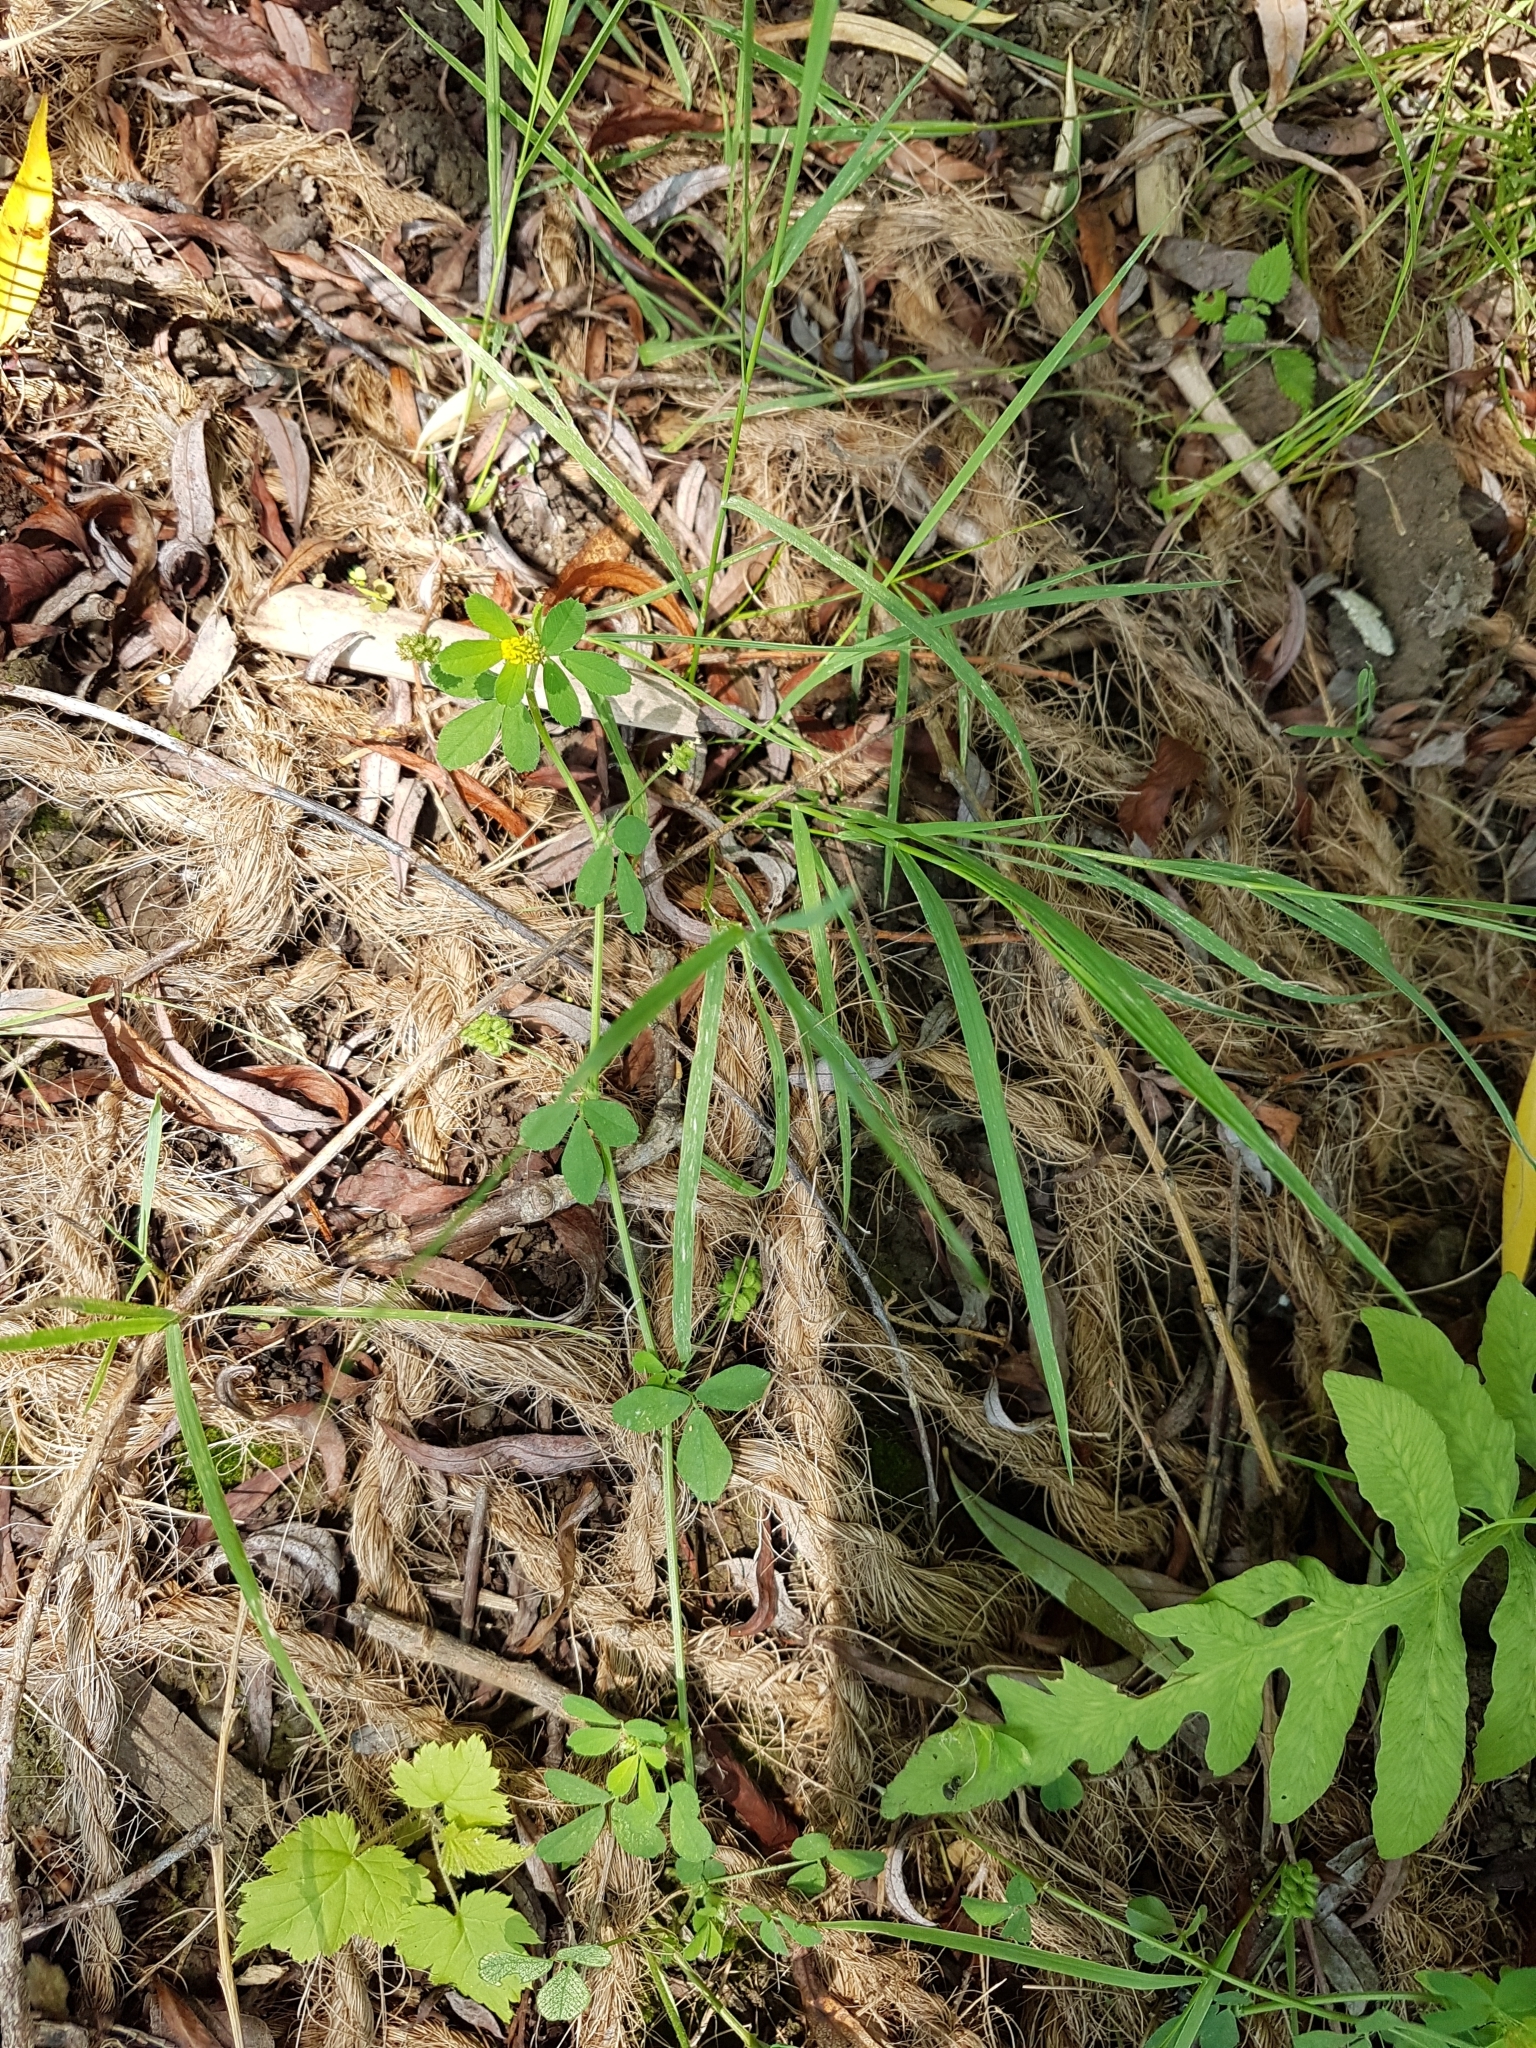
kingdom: Plantae
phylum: Tracheophyta
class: Magnoliopsida
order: Fabales
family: Fabaceae
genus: Medicago
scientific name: Medicago lupulina
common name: Black medick
